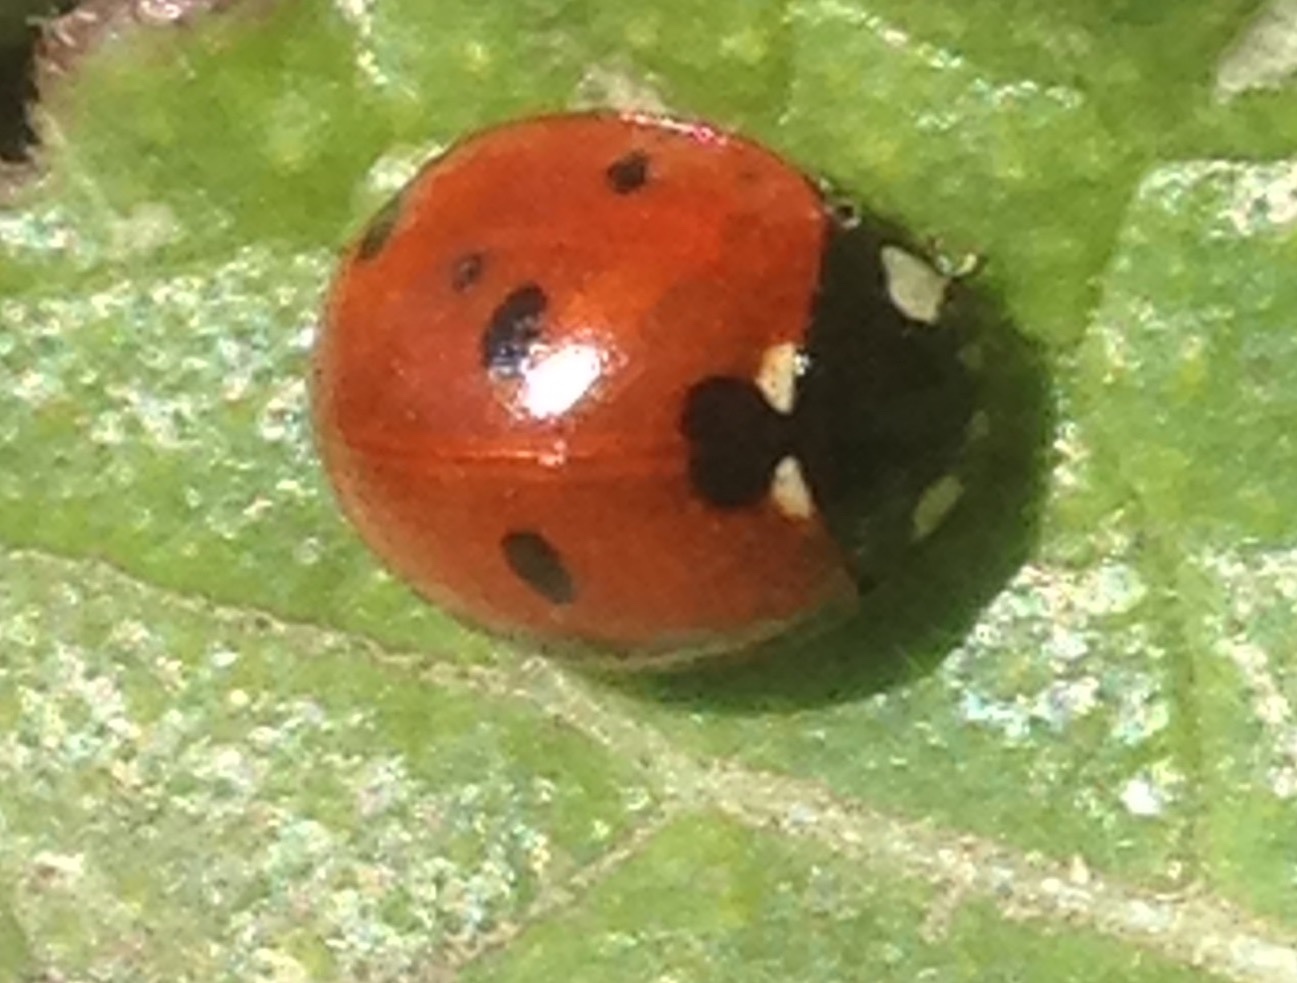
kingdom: Animalia
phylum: Arthropoda
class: Insecta
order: Coleoptera
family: Coccinellidae
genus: Coccinella
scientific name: Coccinella septempunctata
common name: Sevenspotted lady beetle
